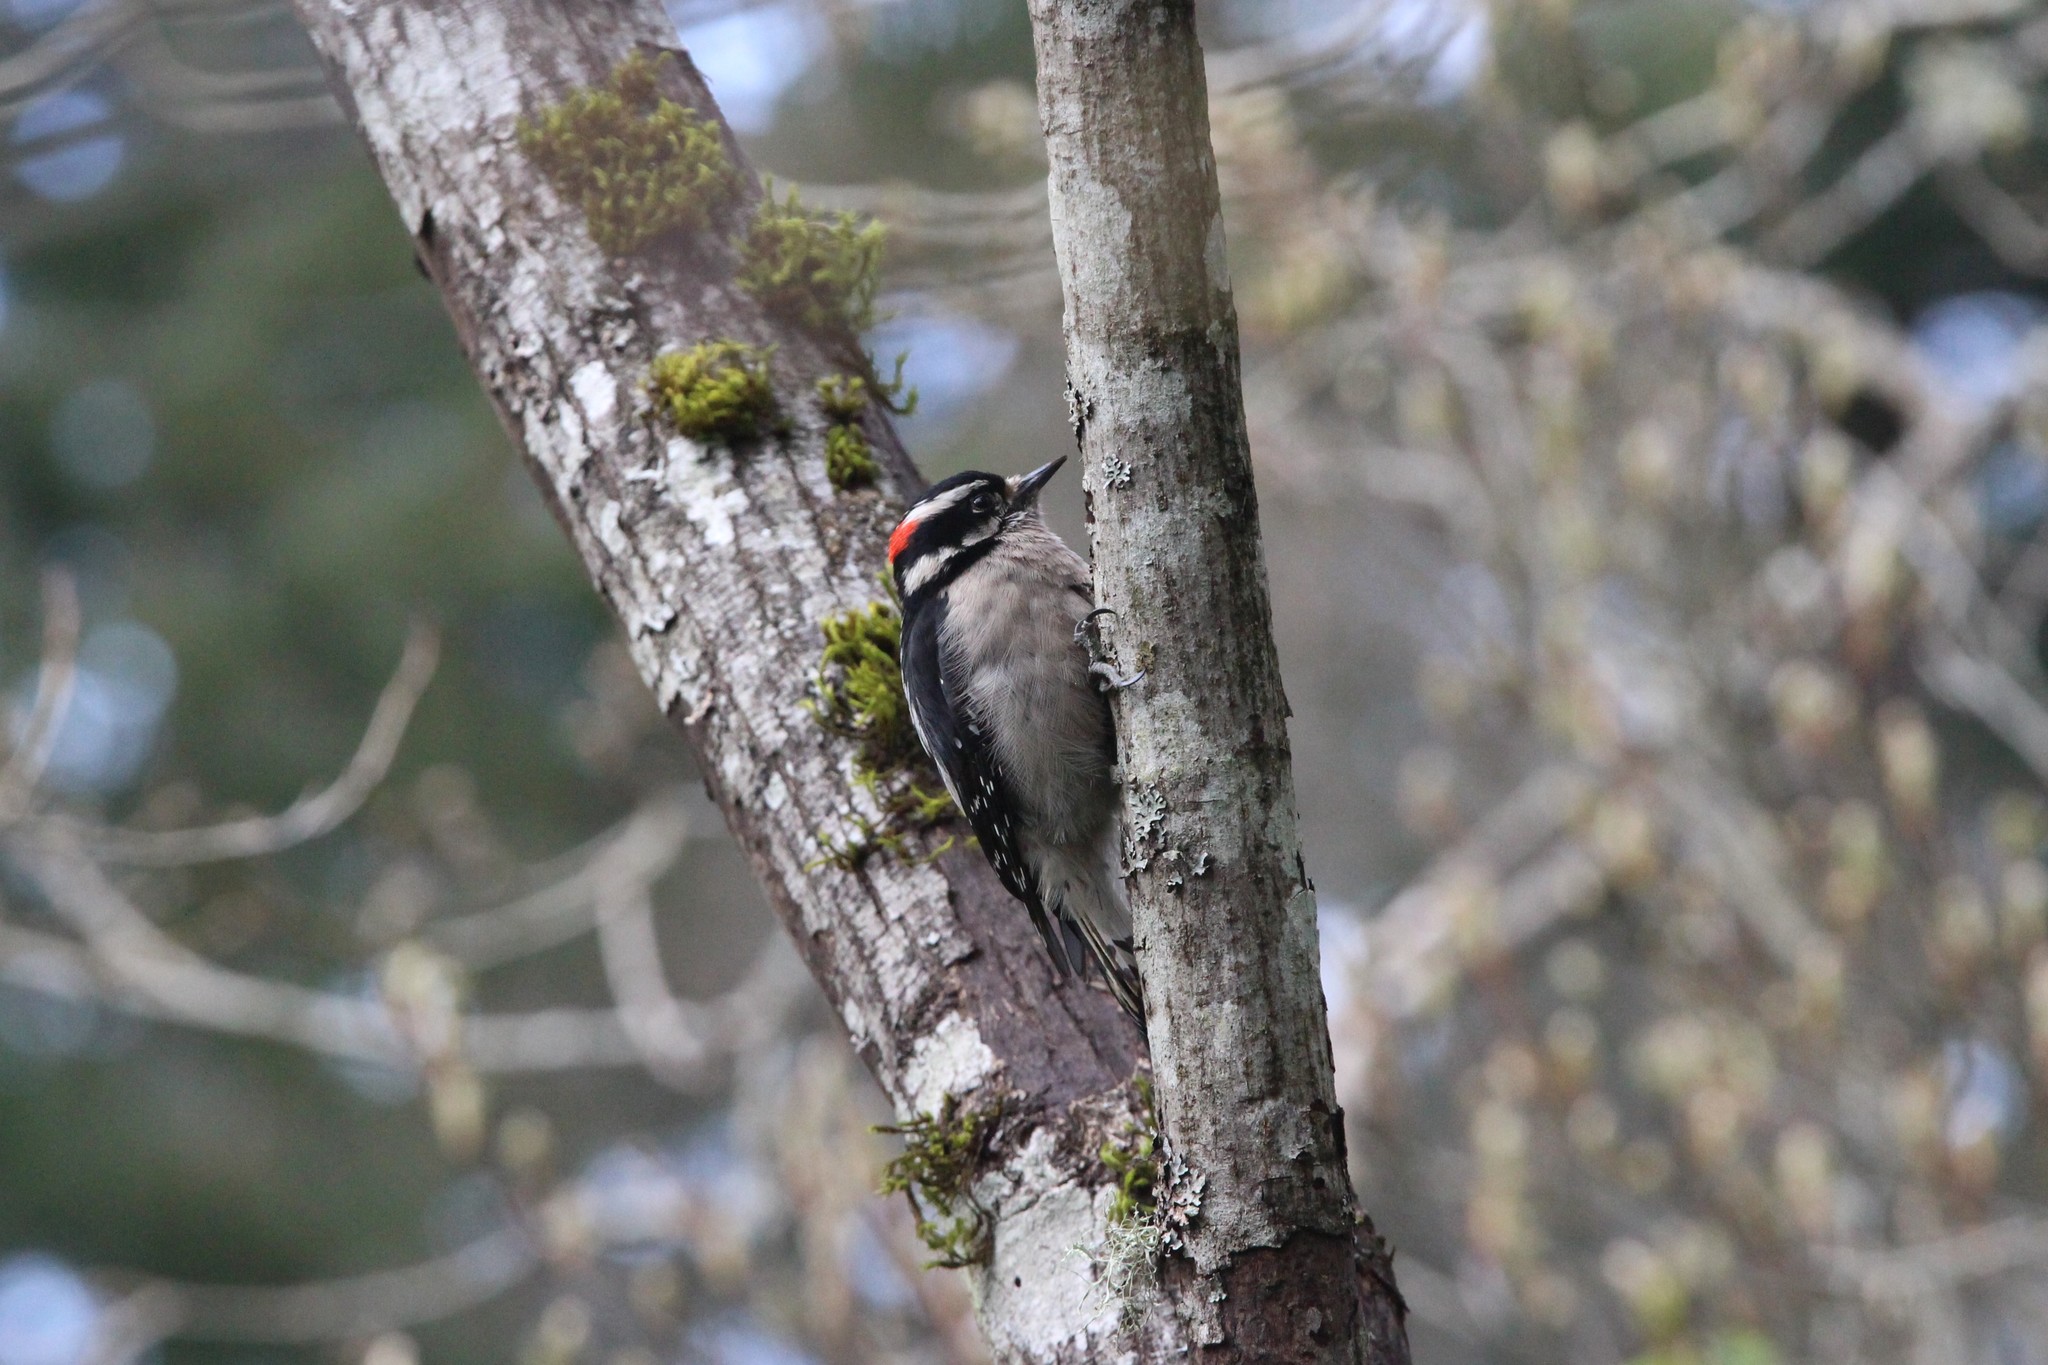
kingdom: Animalia
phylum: Chordata
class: Aves
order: Piciformes
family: Picidae
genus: Dryobates
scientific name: Dryobates pubescens
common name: Downy woodpecker
